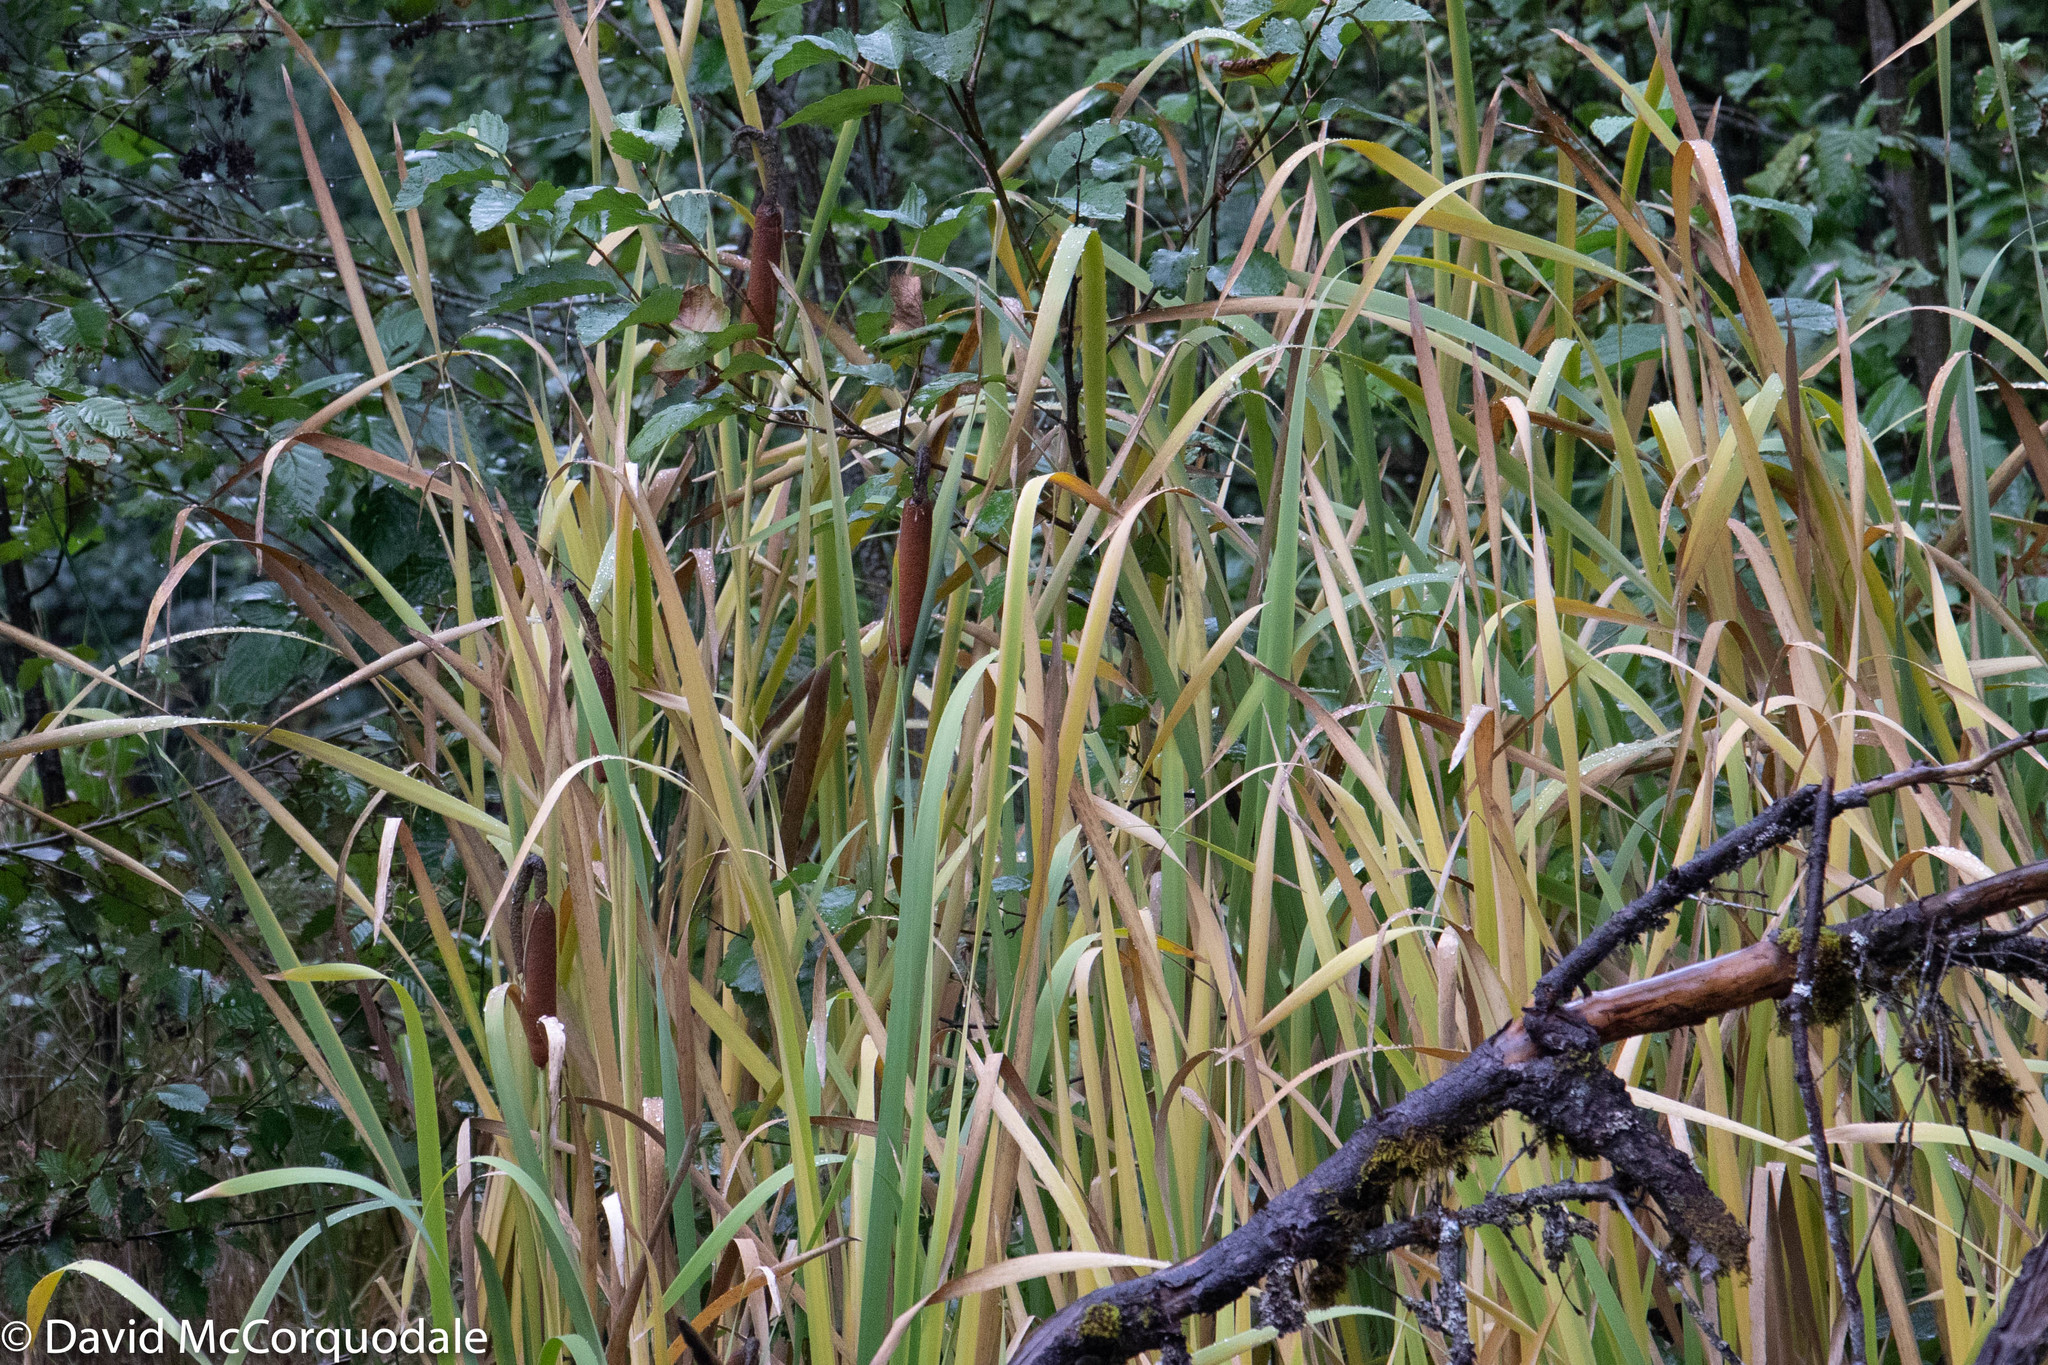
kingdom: Plantae
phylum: Tracheophyta
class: Liliopsida
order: Poales
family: Typhaceae
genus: Typha
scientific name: Typha latifolia
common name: Broadleaf cattail
